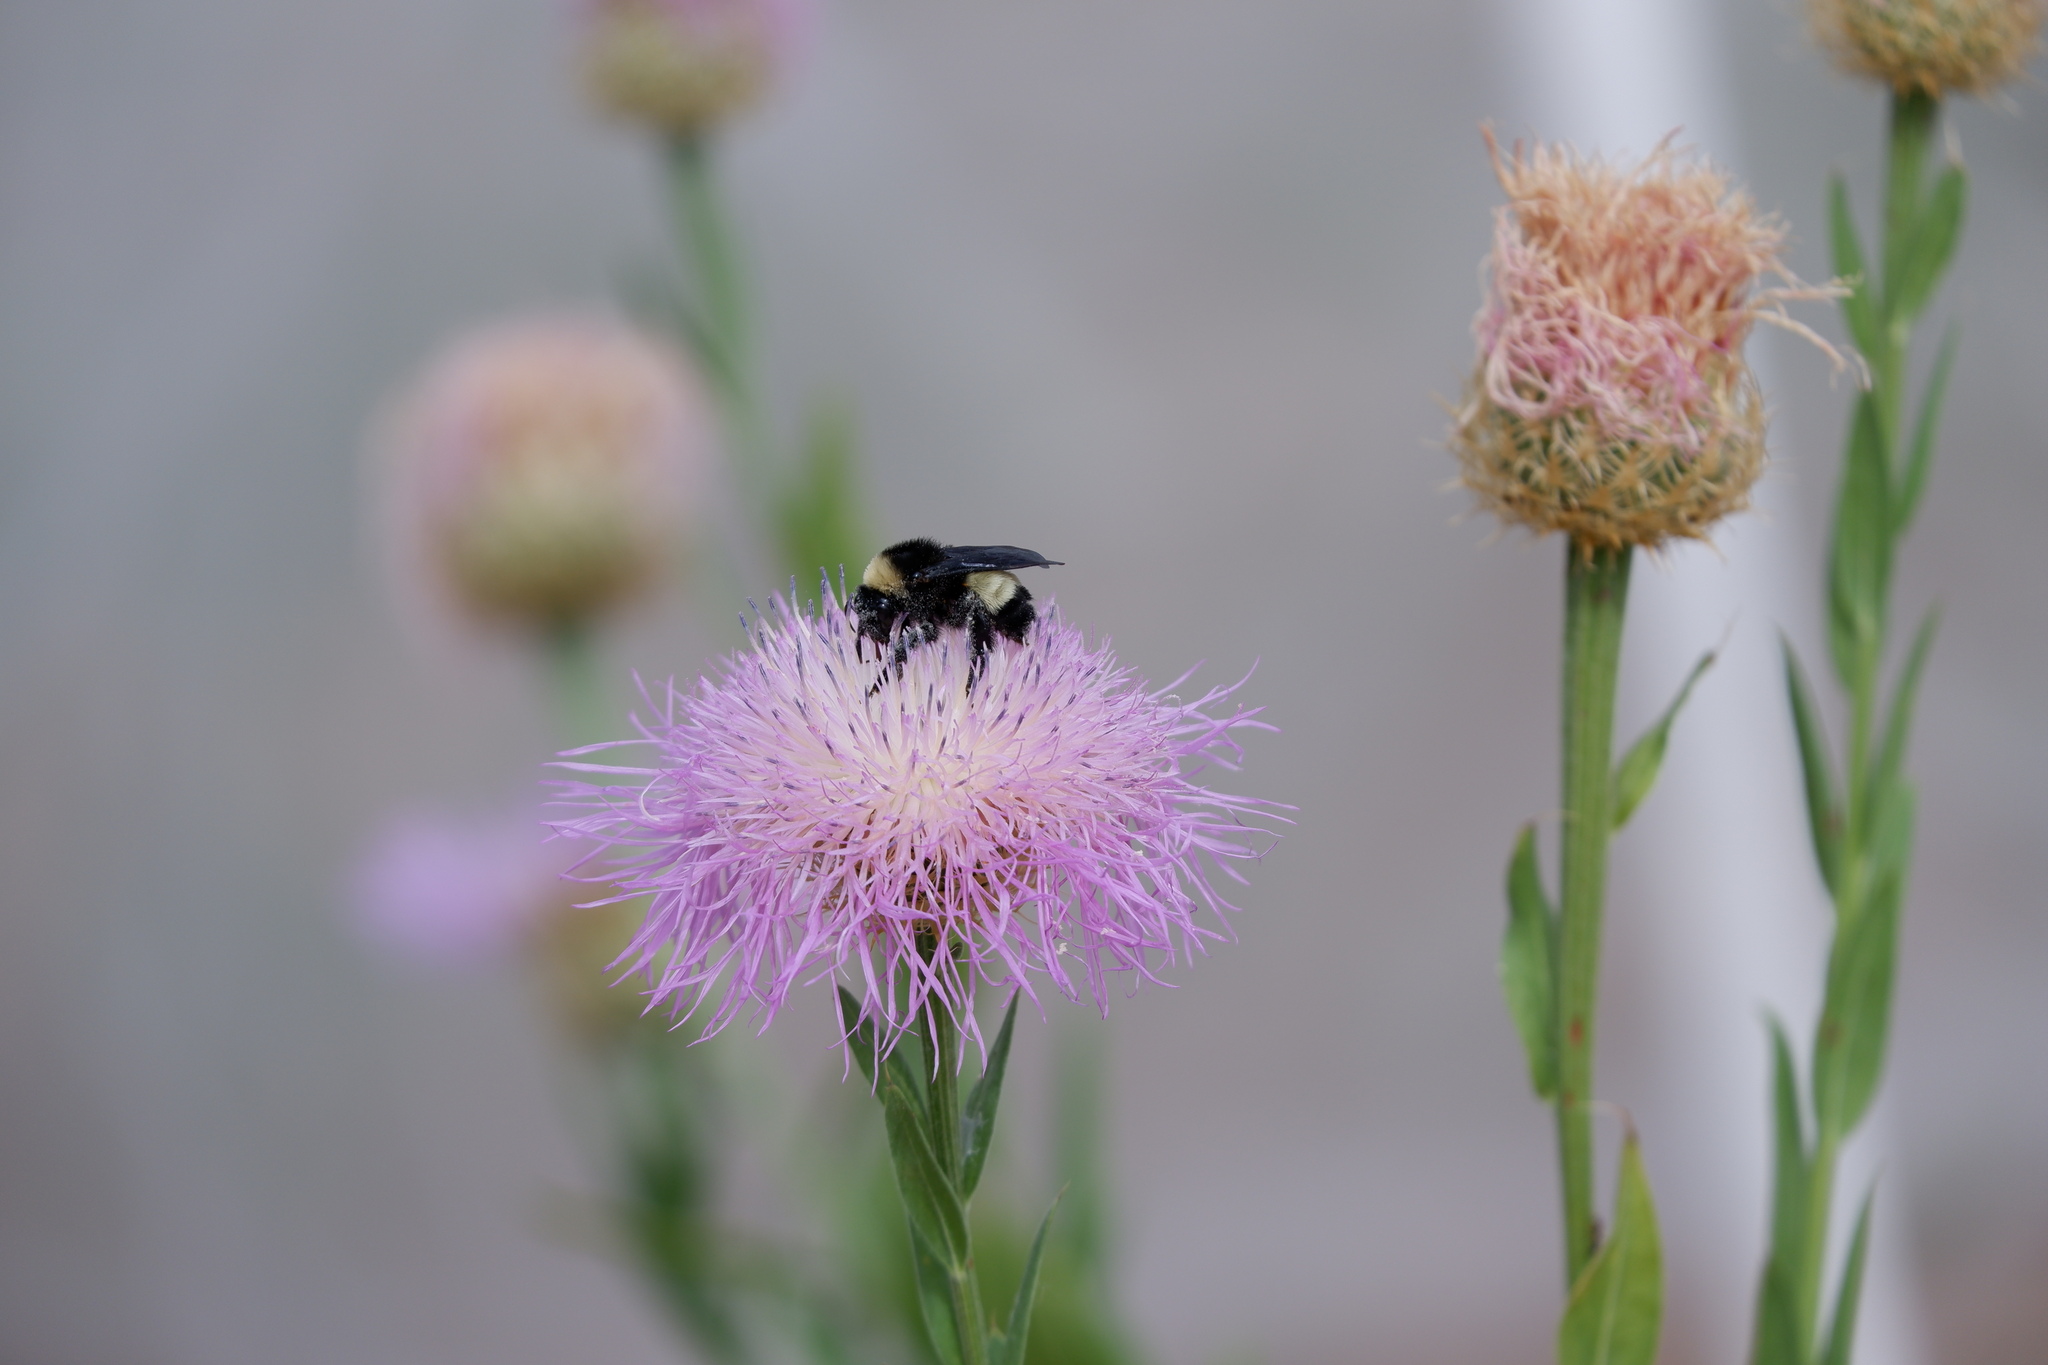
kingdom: Animalia
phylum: Arthropoda
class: Insecta
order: Hymenoptera
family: Apidae
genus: Bombus
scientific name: Bombus pensylvanicus
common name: Bumble bee
